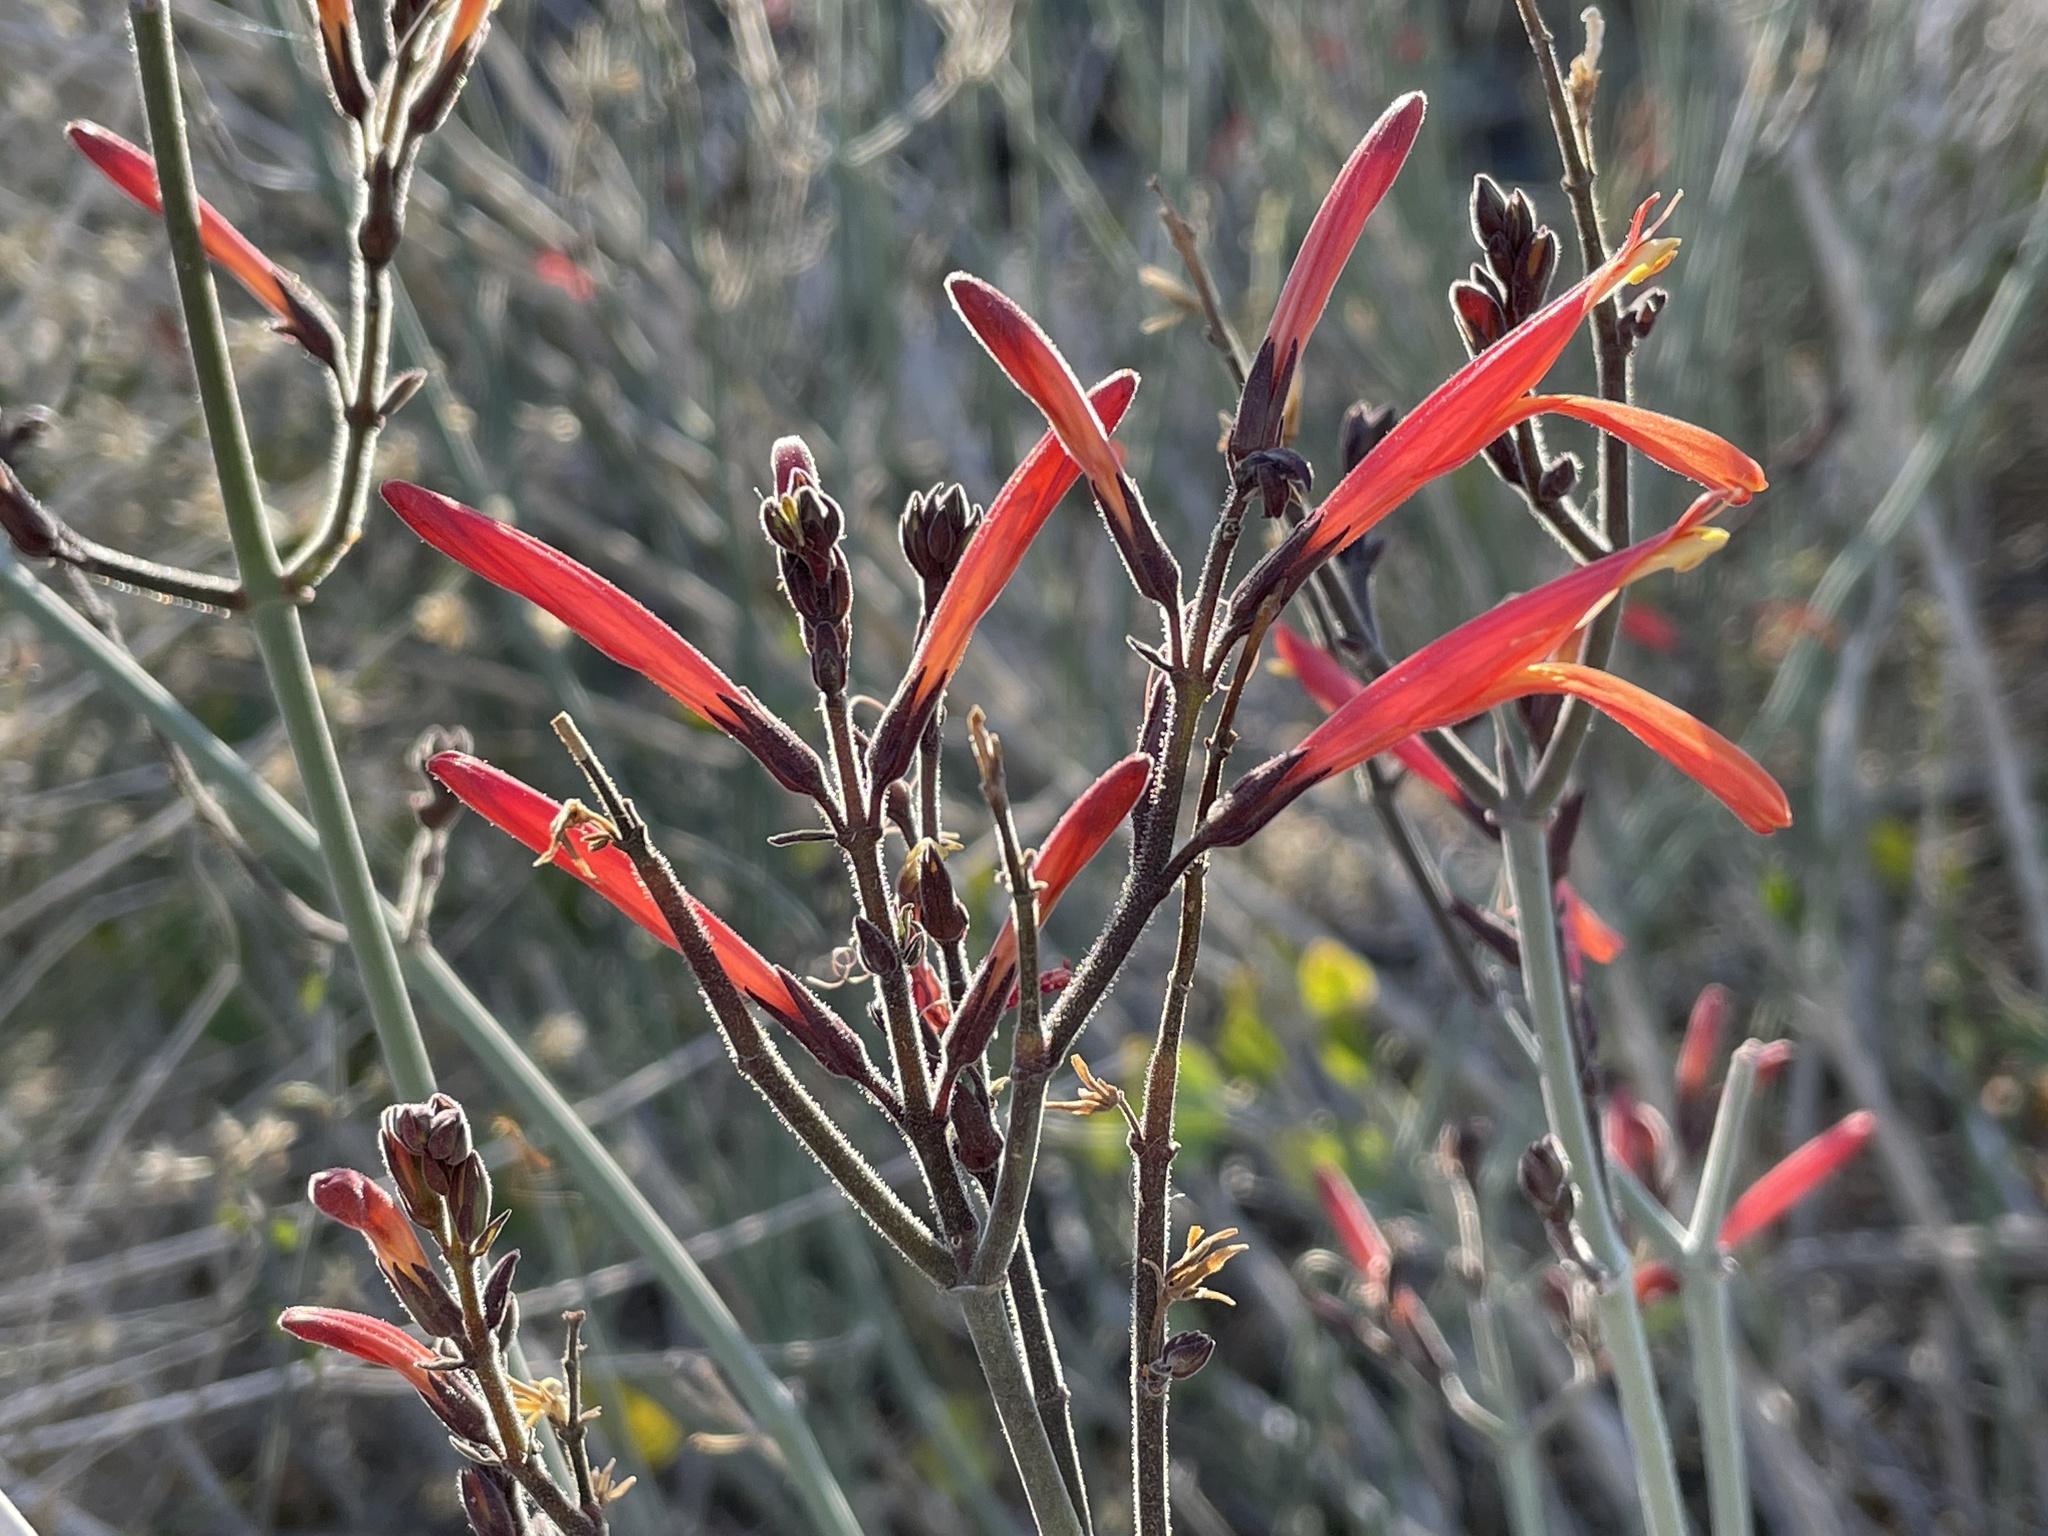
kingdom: Plantae
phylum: Tracheophyta
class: Magnoliopsida
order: Lamiales
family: Acanthaceae
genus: Justicia
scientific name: Justicia californica
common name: Chuparosa-honeysuckle
